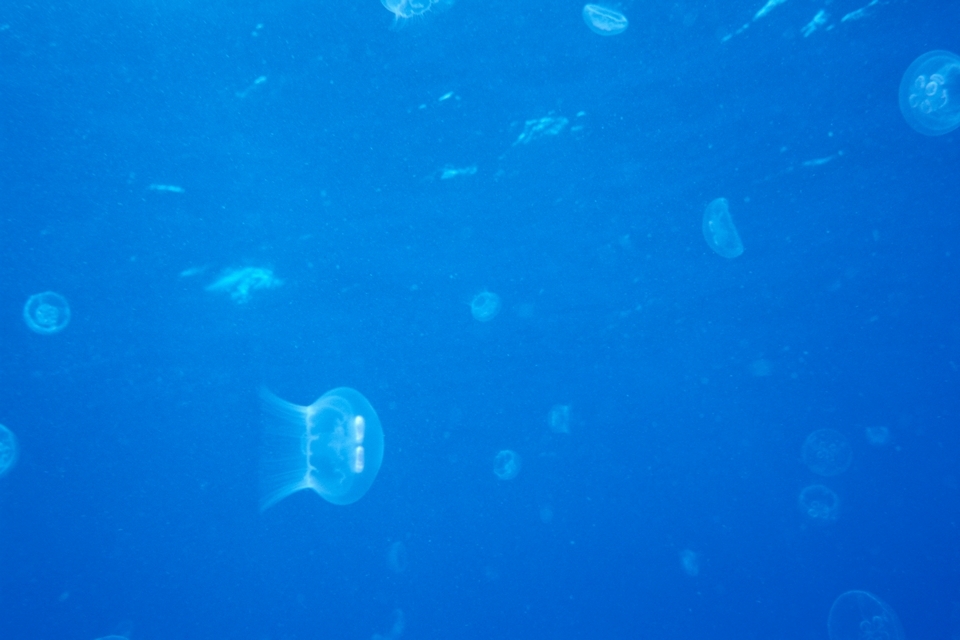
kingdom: Animalia
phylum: Cnidaria
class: Scyphozoa
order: Semaeostomeae
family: Ulmaridae
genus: Aurelia
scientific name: Aurelia marginalis
